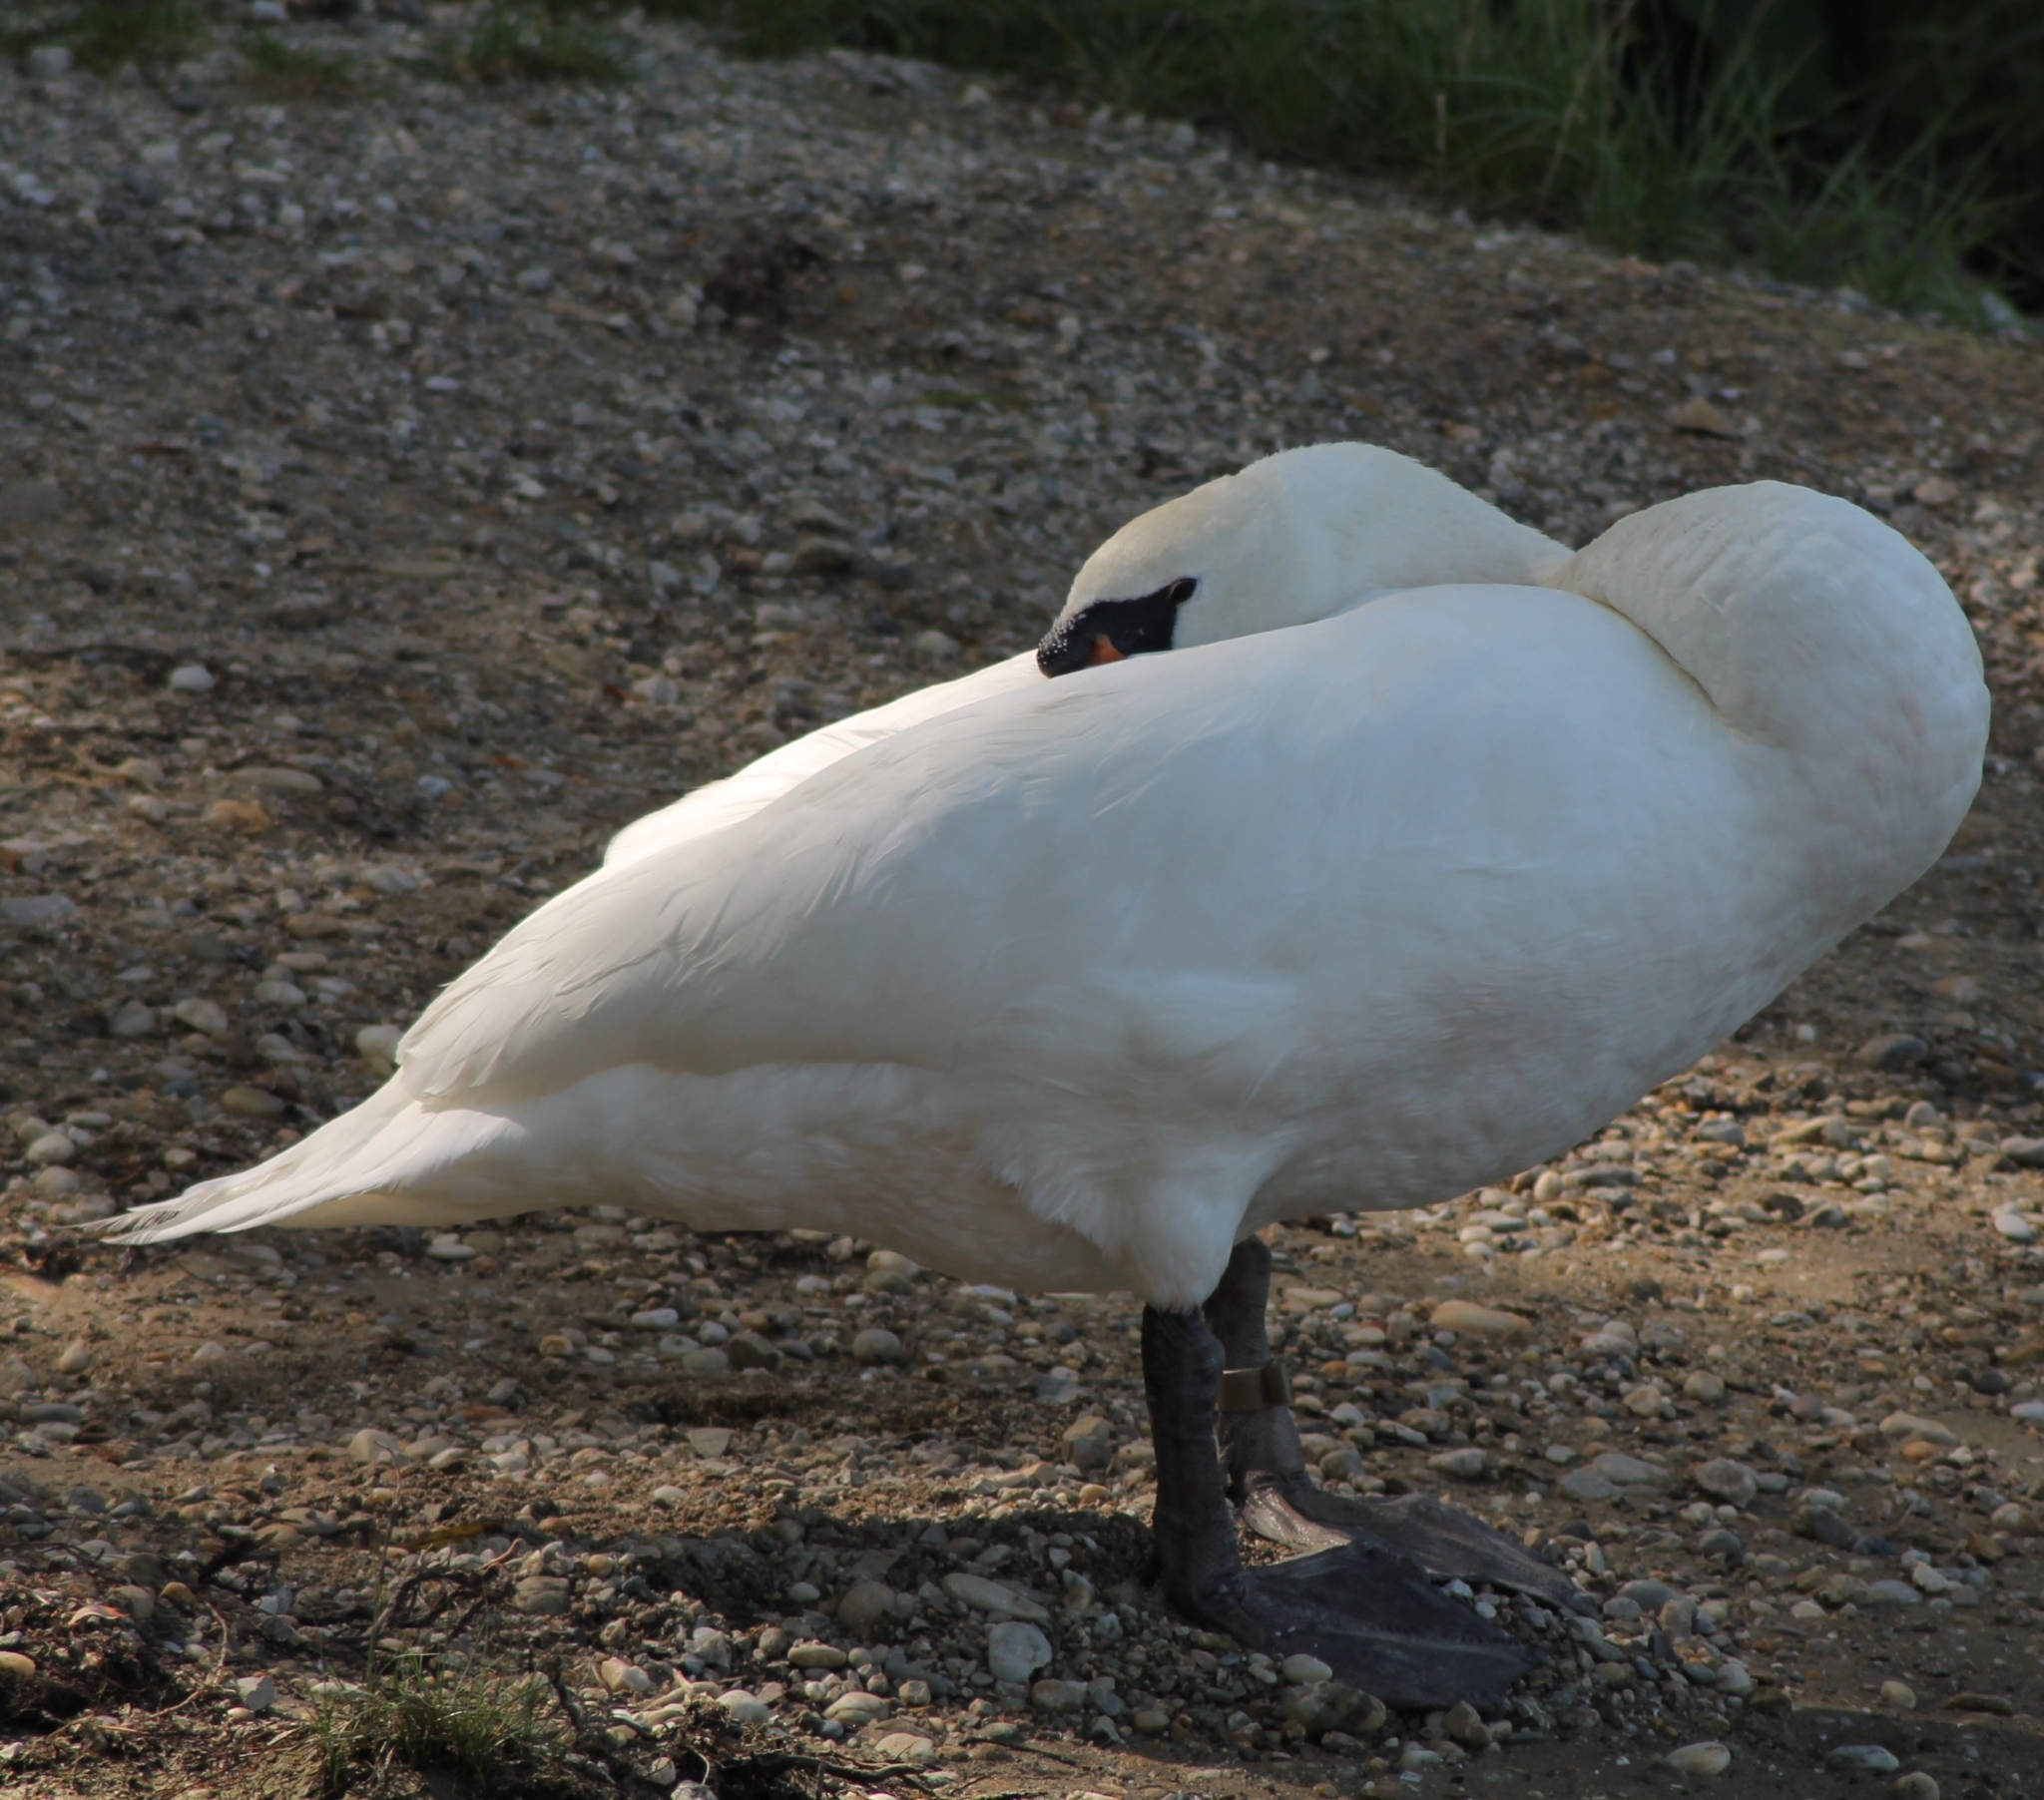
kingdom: Animalia
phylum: Chordata
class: Aves
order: Anseriformes
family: Anatidae
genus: Cygnus
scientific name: Cygnus olor
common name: Mute swan
